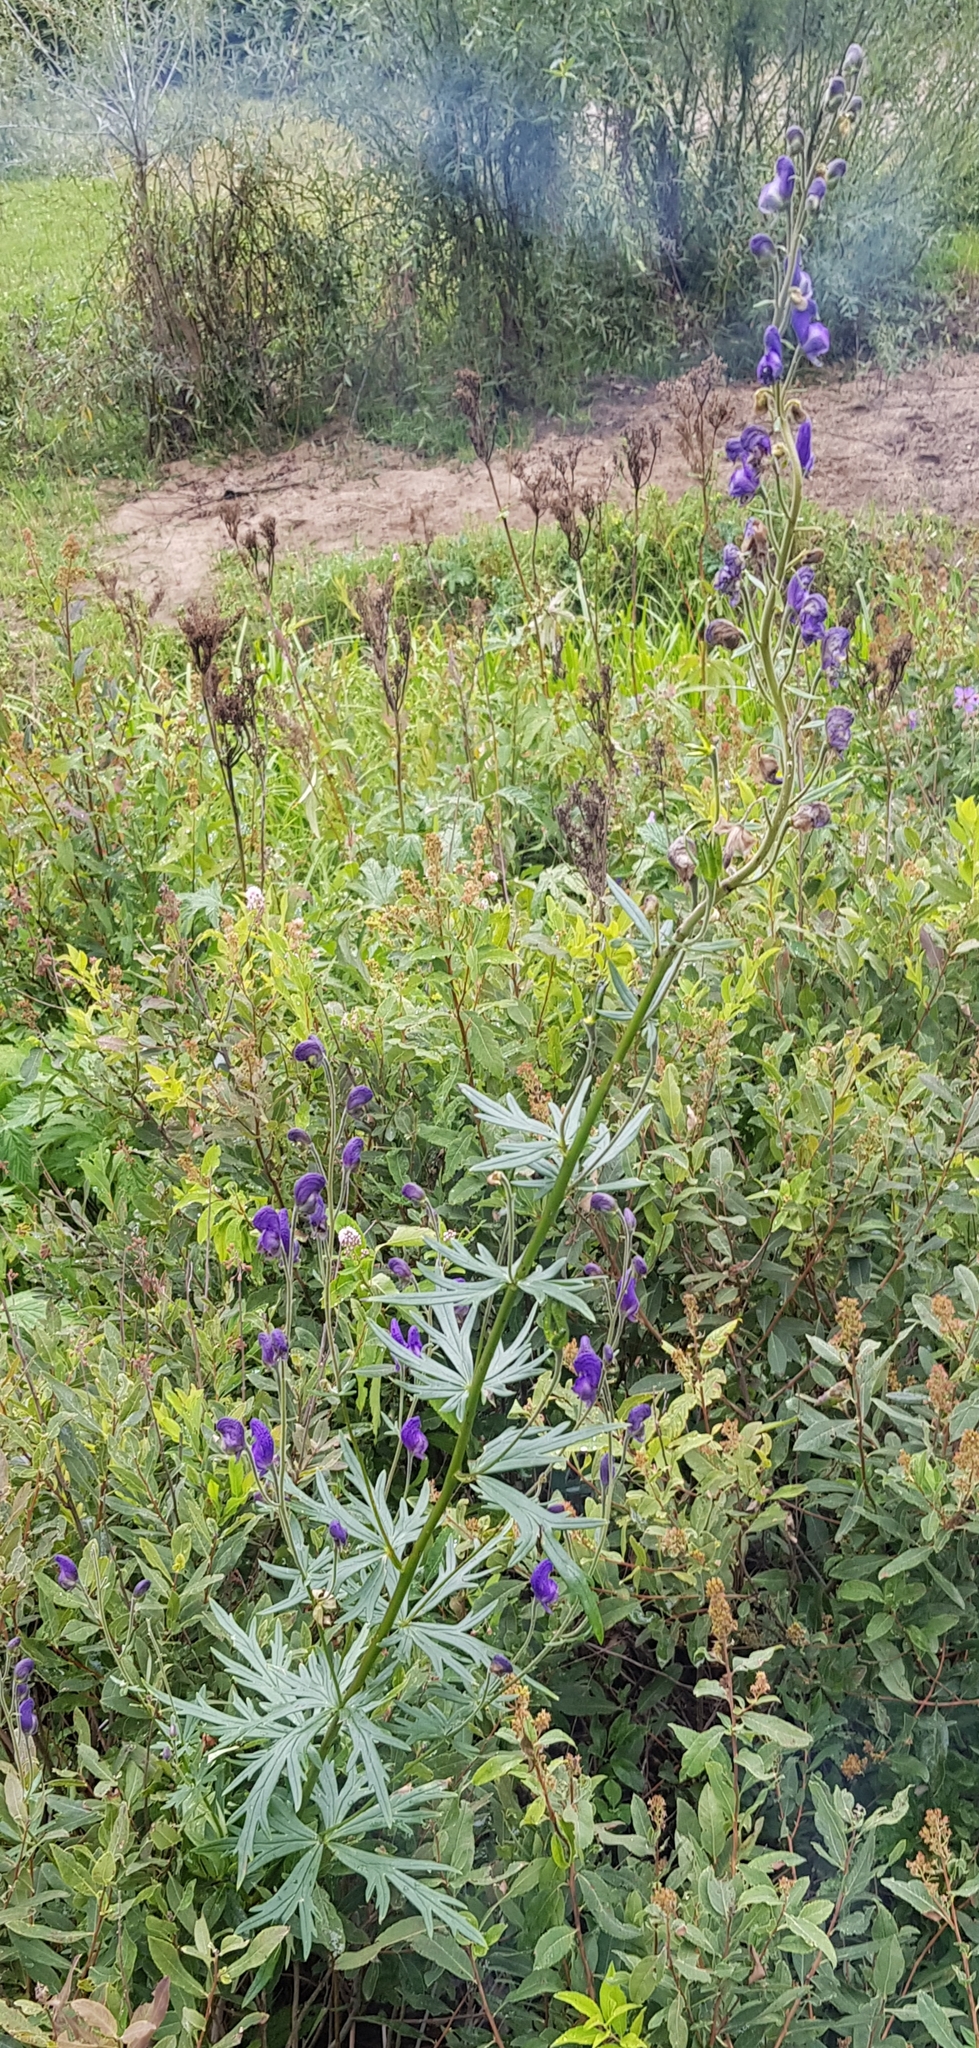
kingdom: Plantae
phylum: Tracheophyta
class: Magnoliopsida
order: Ranunculales
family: Ranunculaceae
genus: Aconitum
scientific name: Aconitum baicalense
